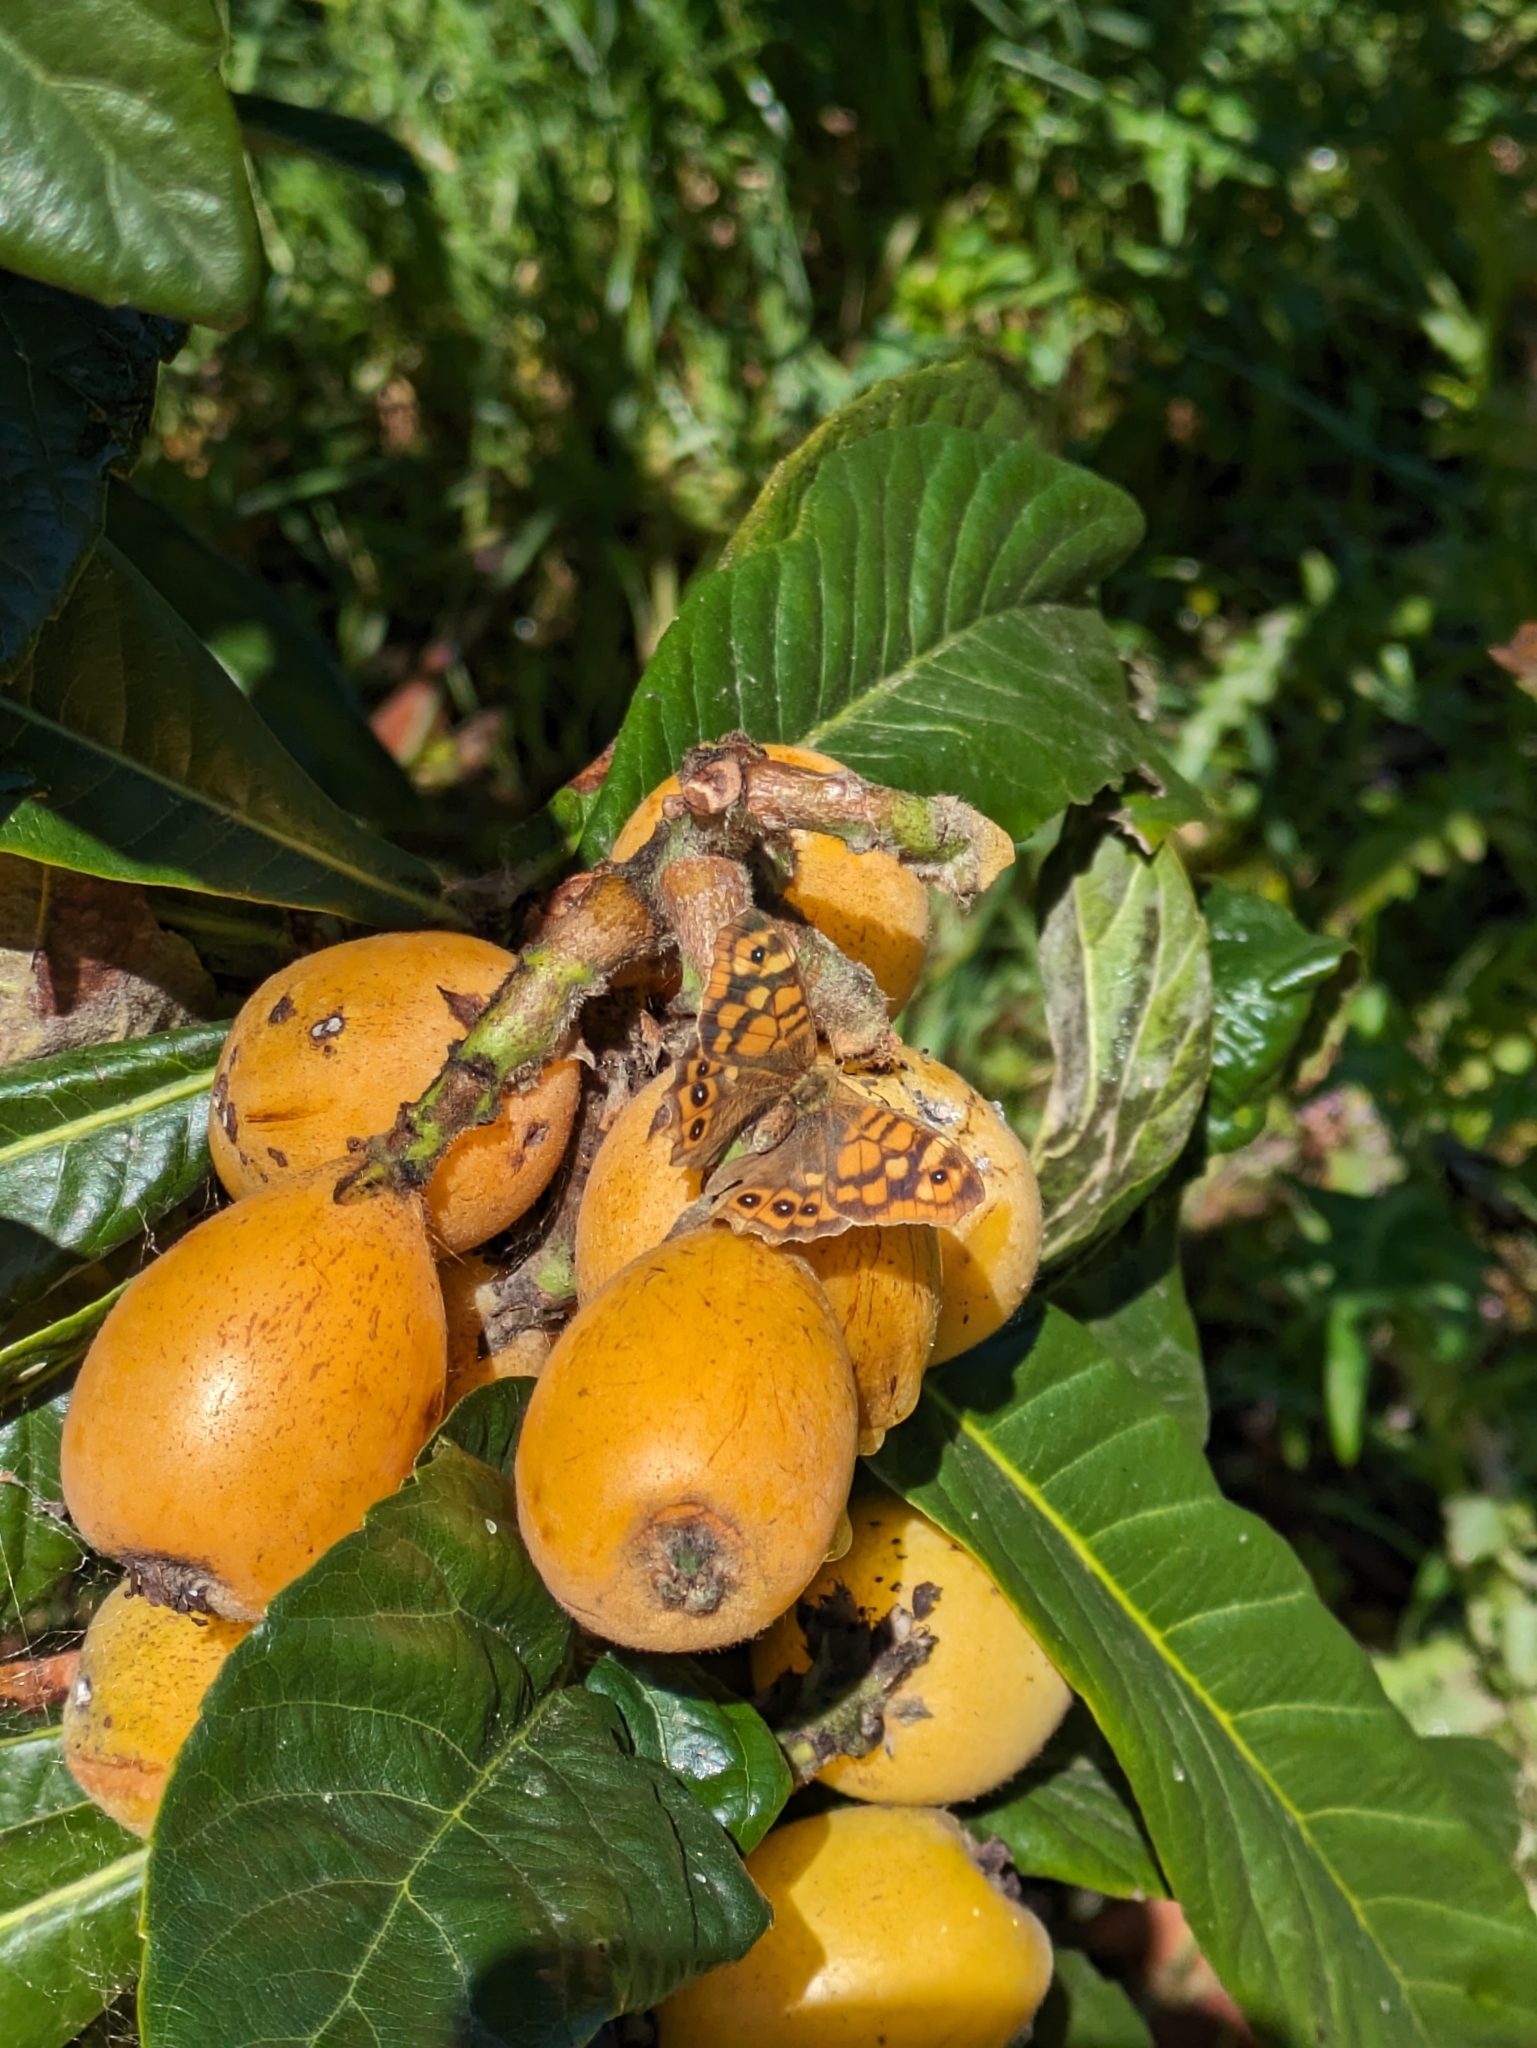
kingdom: Animalia
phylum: Arthropoda
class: Insecta
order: Lepidoptera
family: Nymphalidae
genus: Pararge
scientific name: Pararge aegeria
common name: Speckled wood
